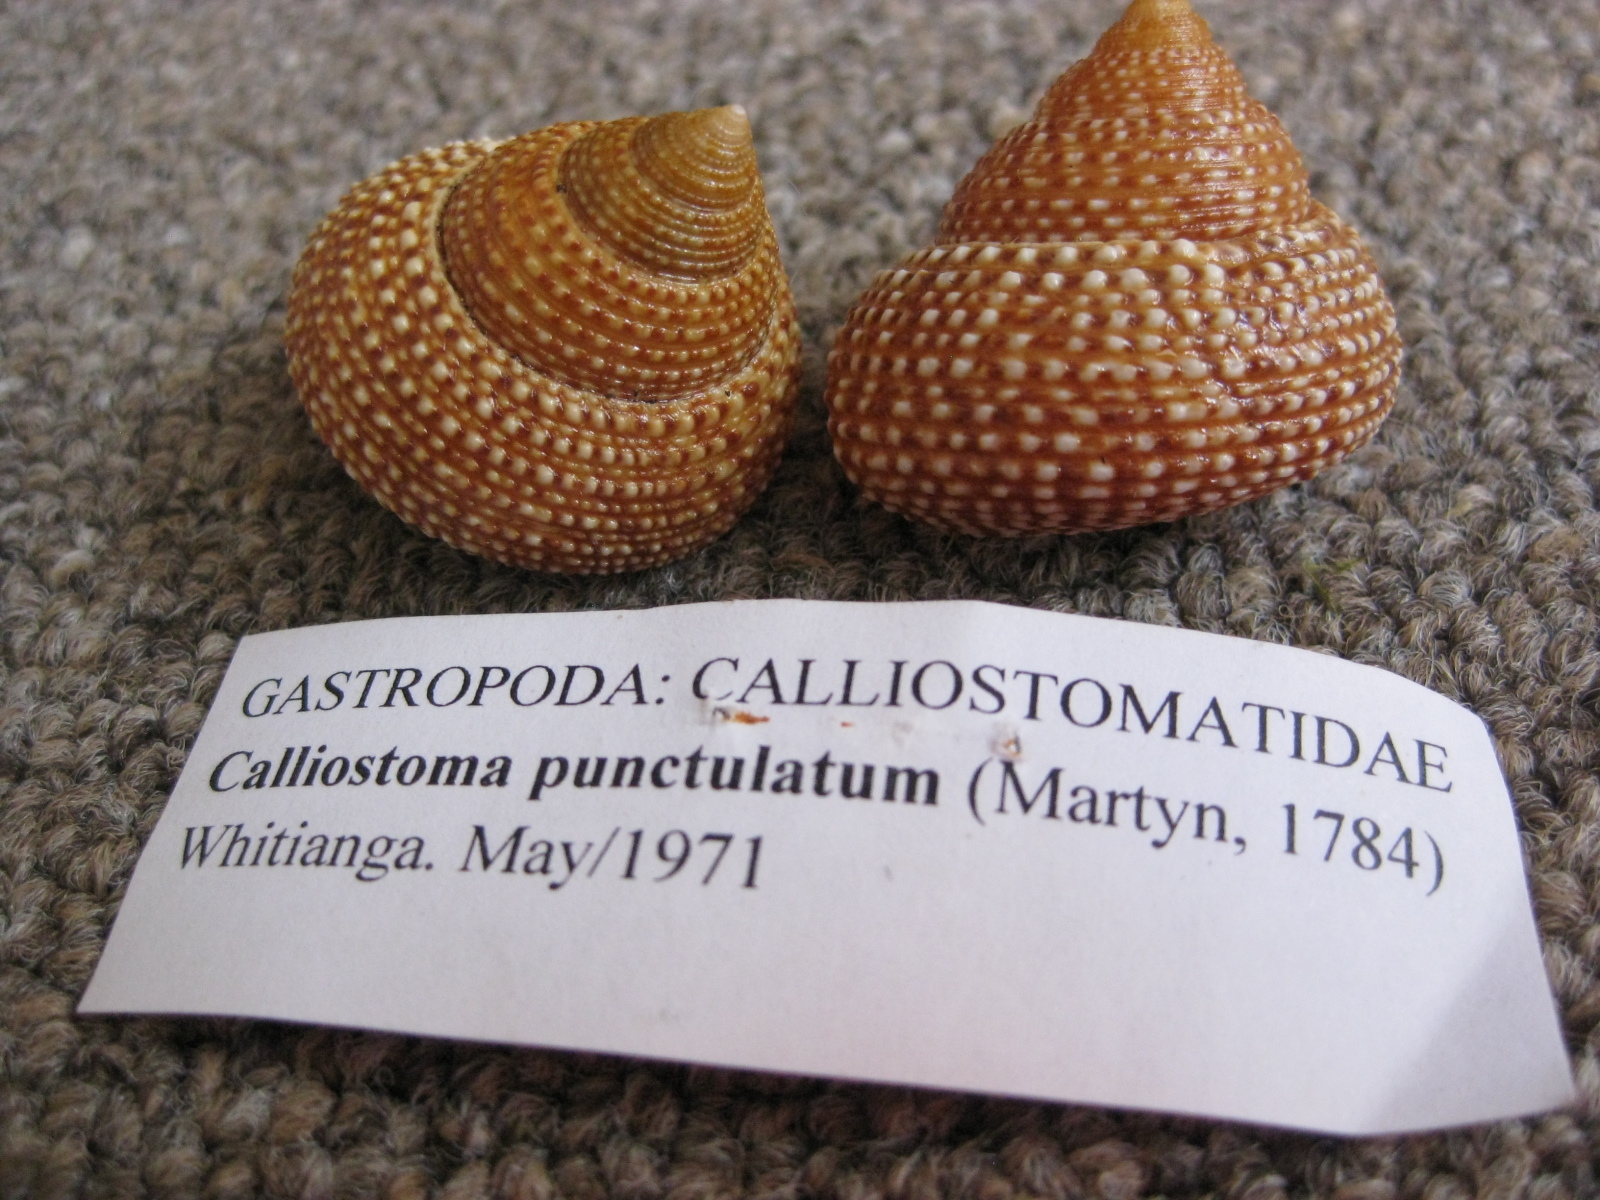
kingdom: Animalia
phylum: Mollusca
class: Gastropoda
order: Trochida
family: Calliostomatidae
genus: Maurea
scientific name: Maurea punctulata
